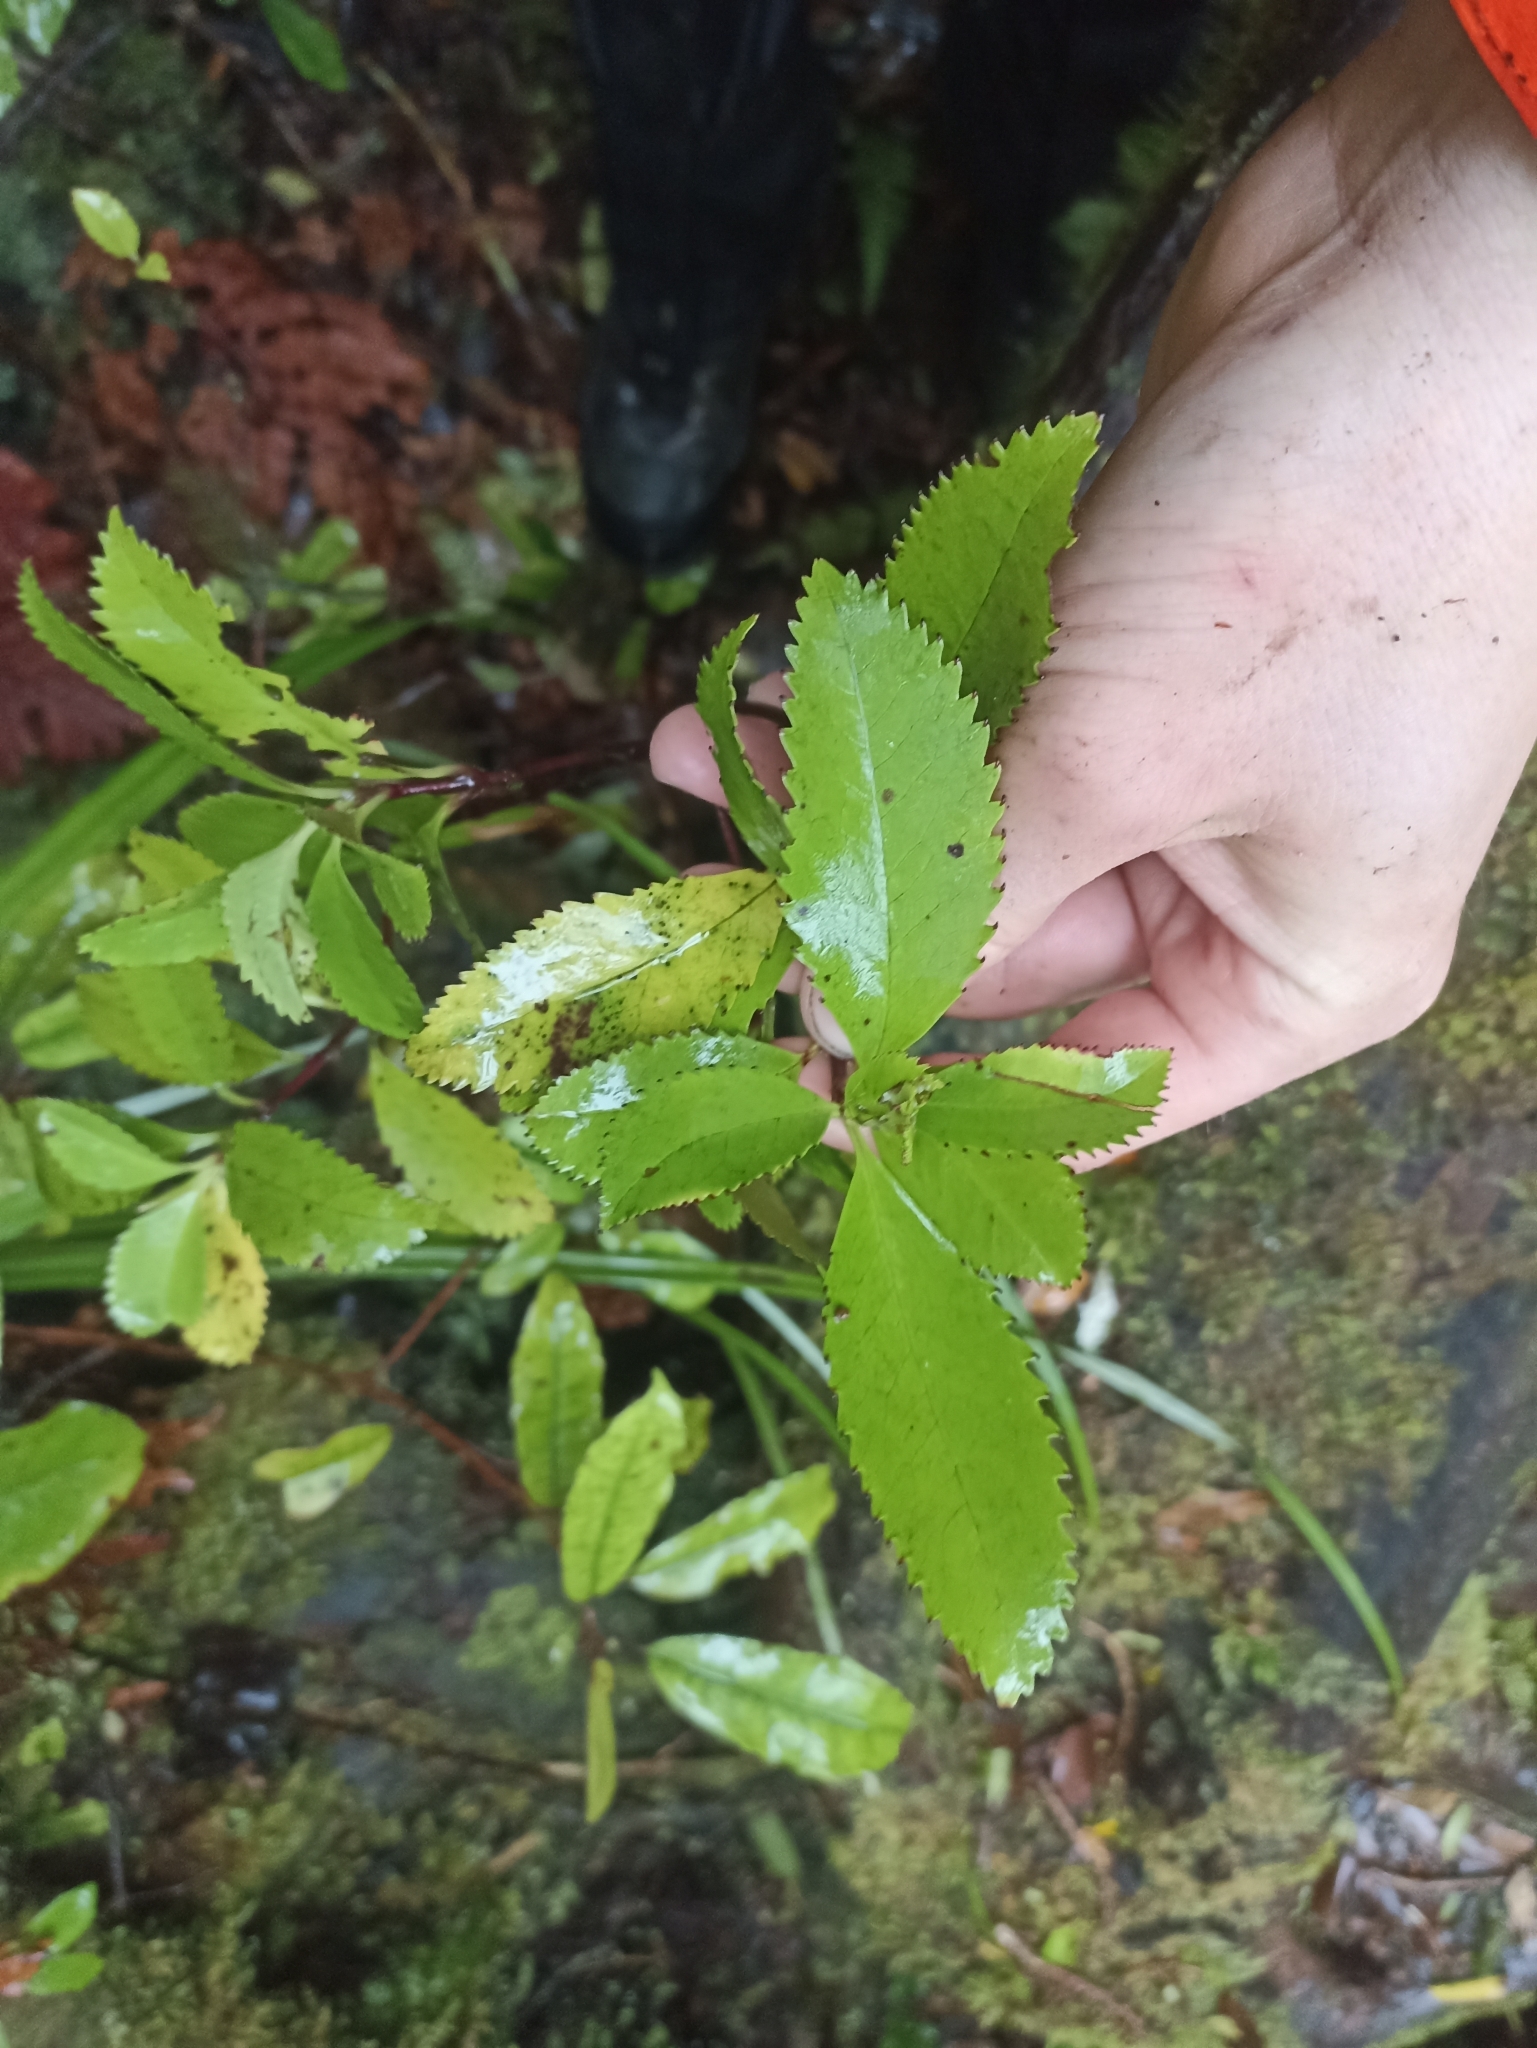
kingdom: Plantae
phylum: Tracheophyta
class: Magnoliopsida
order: Chloranthales
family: Chloranthaceae
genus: Ascarina
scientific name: Ascarina lucida
